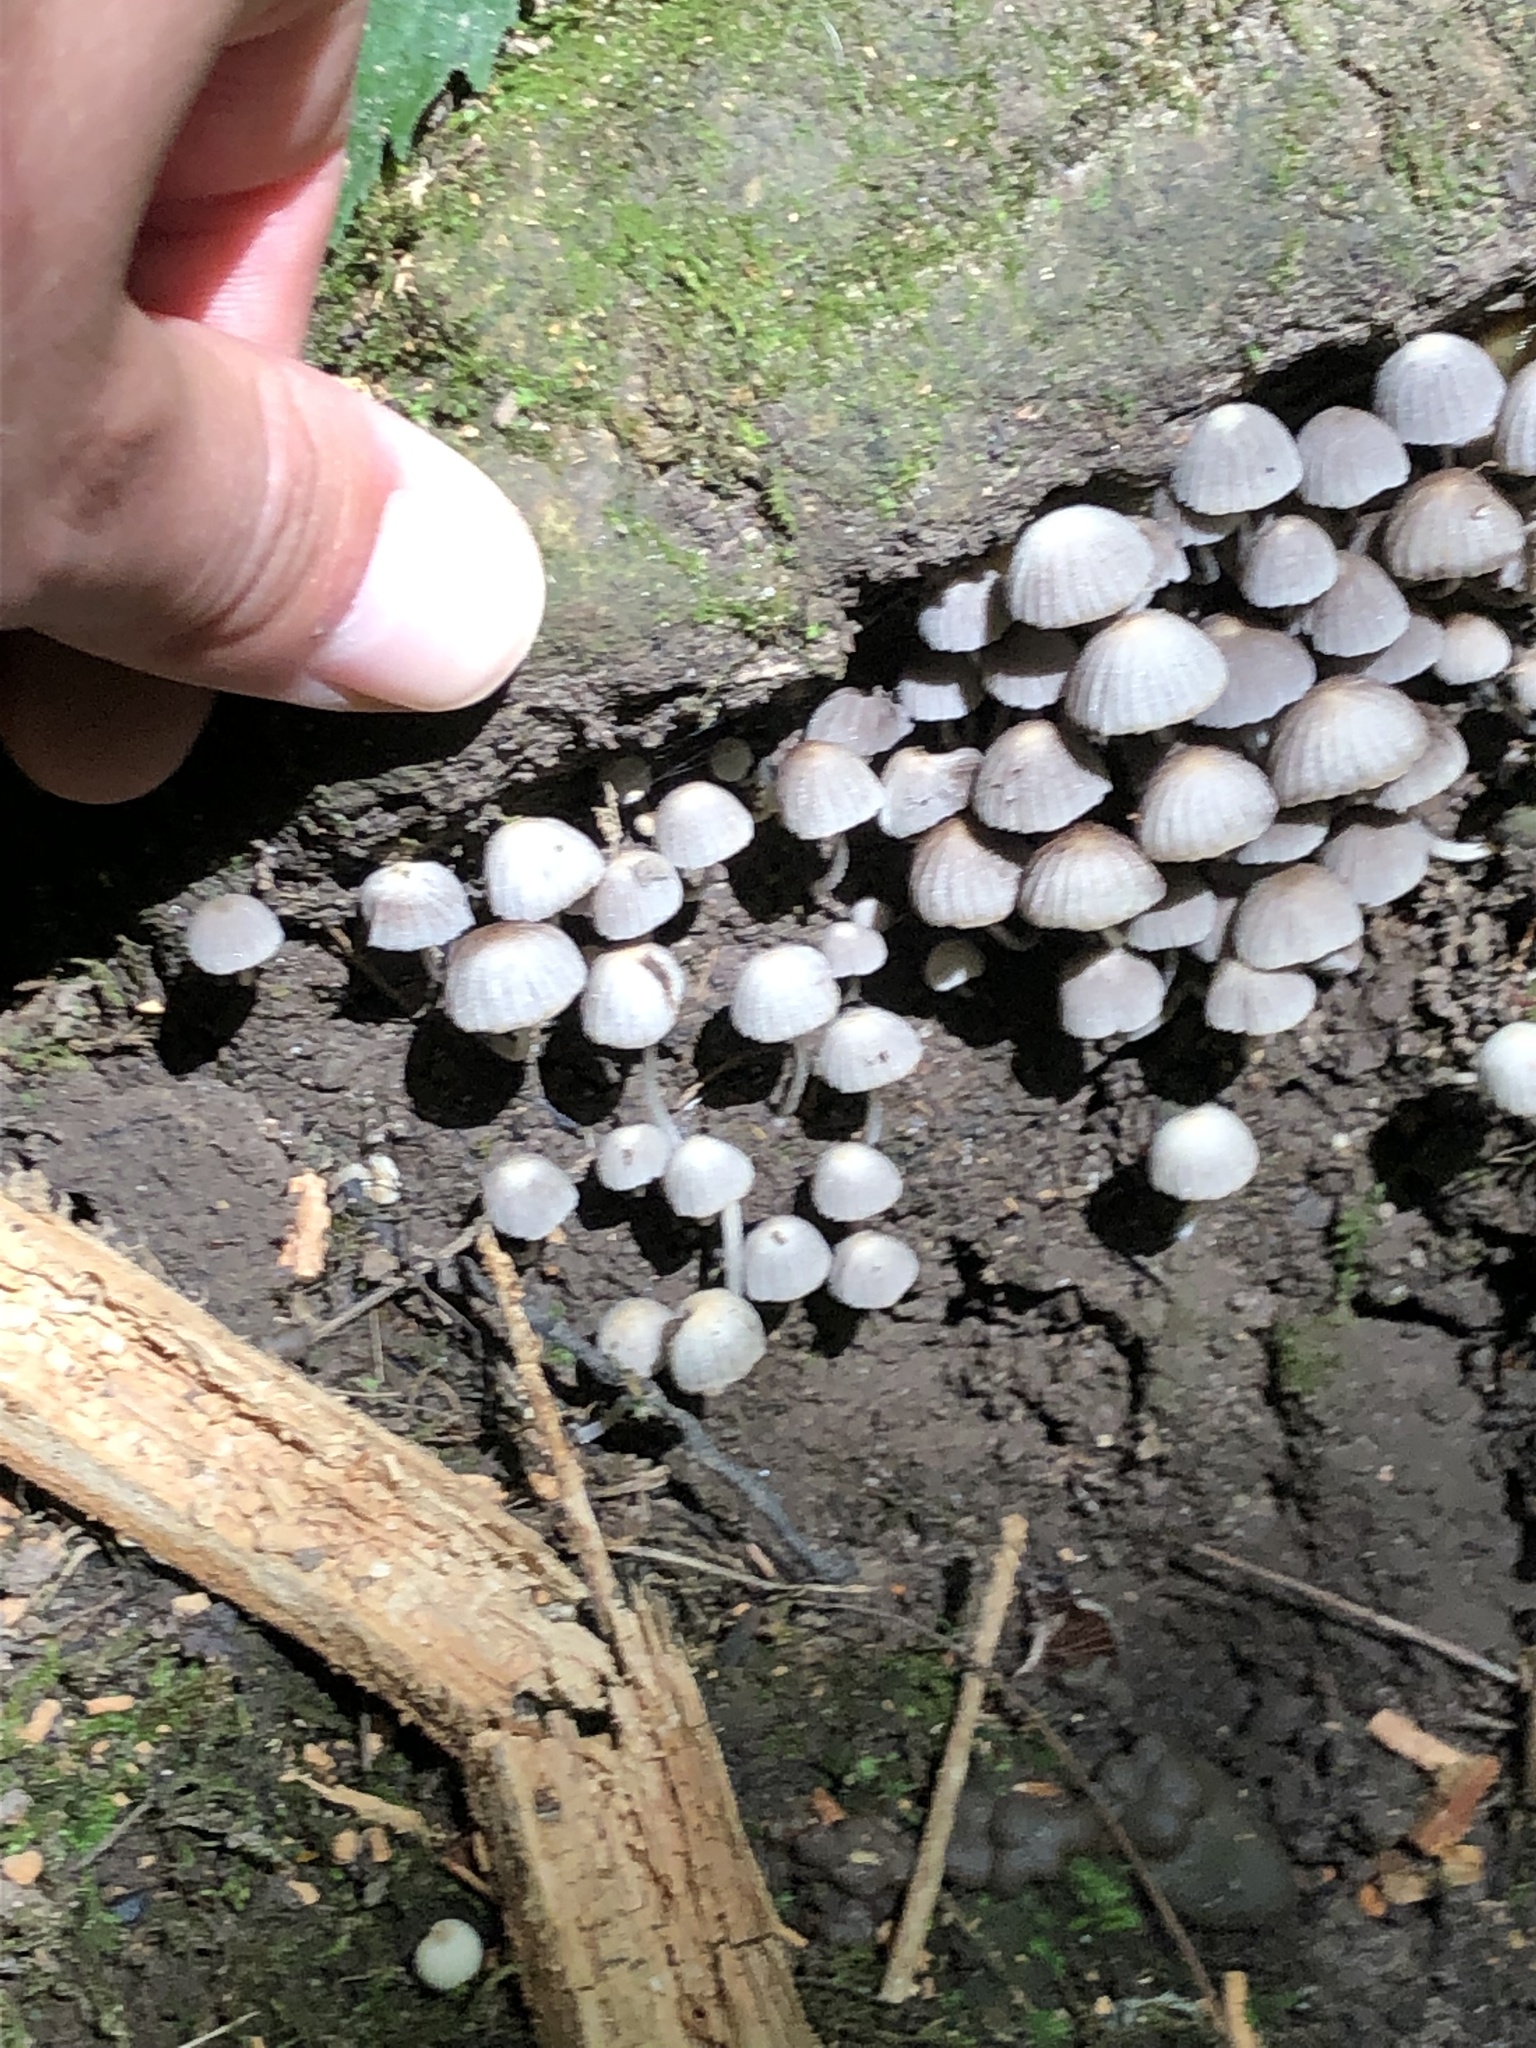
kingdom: Fungi
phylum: Basidiomycota
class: Agaricomycetes
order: Agaricales
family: Psathyrellaceae
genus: Coprinellus
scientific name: Coprinellus disseminatus
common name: Fairies' bonnets
